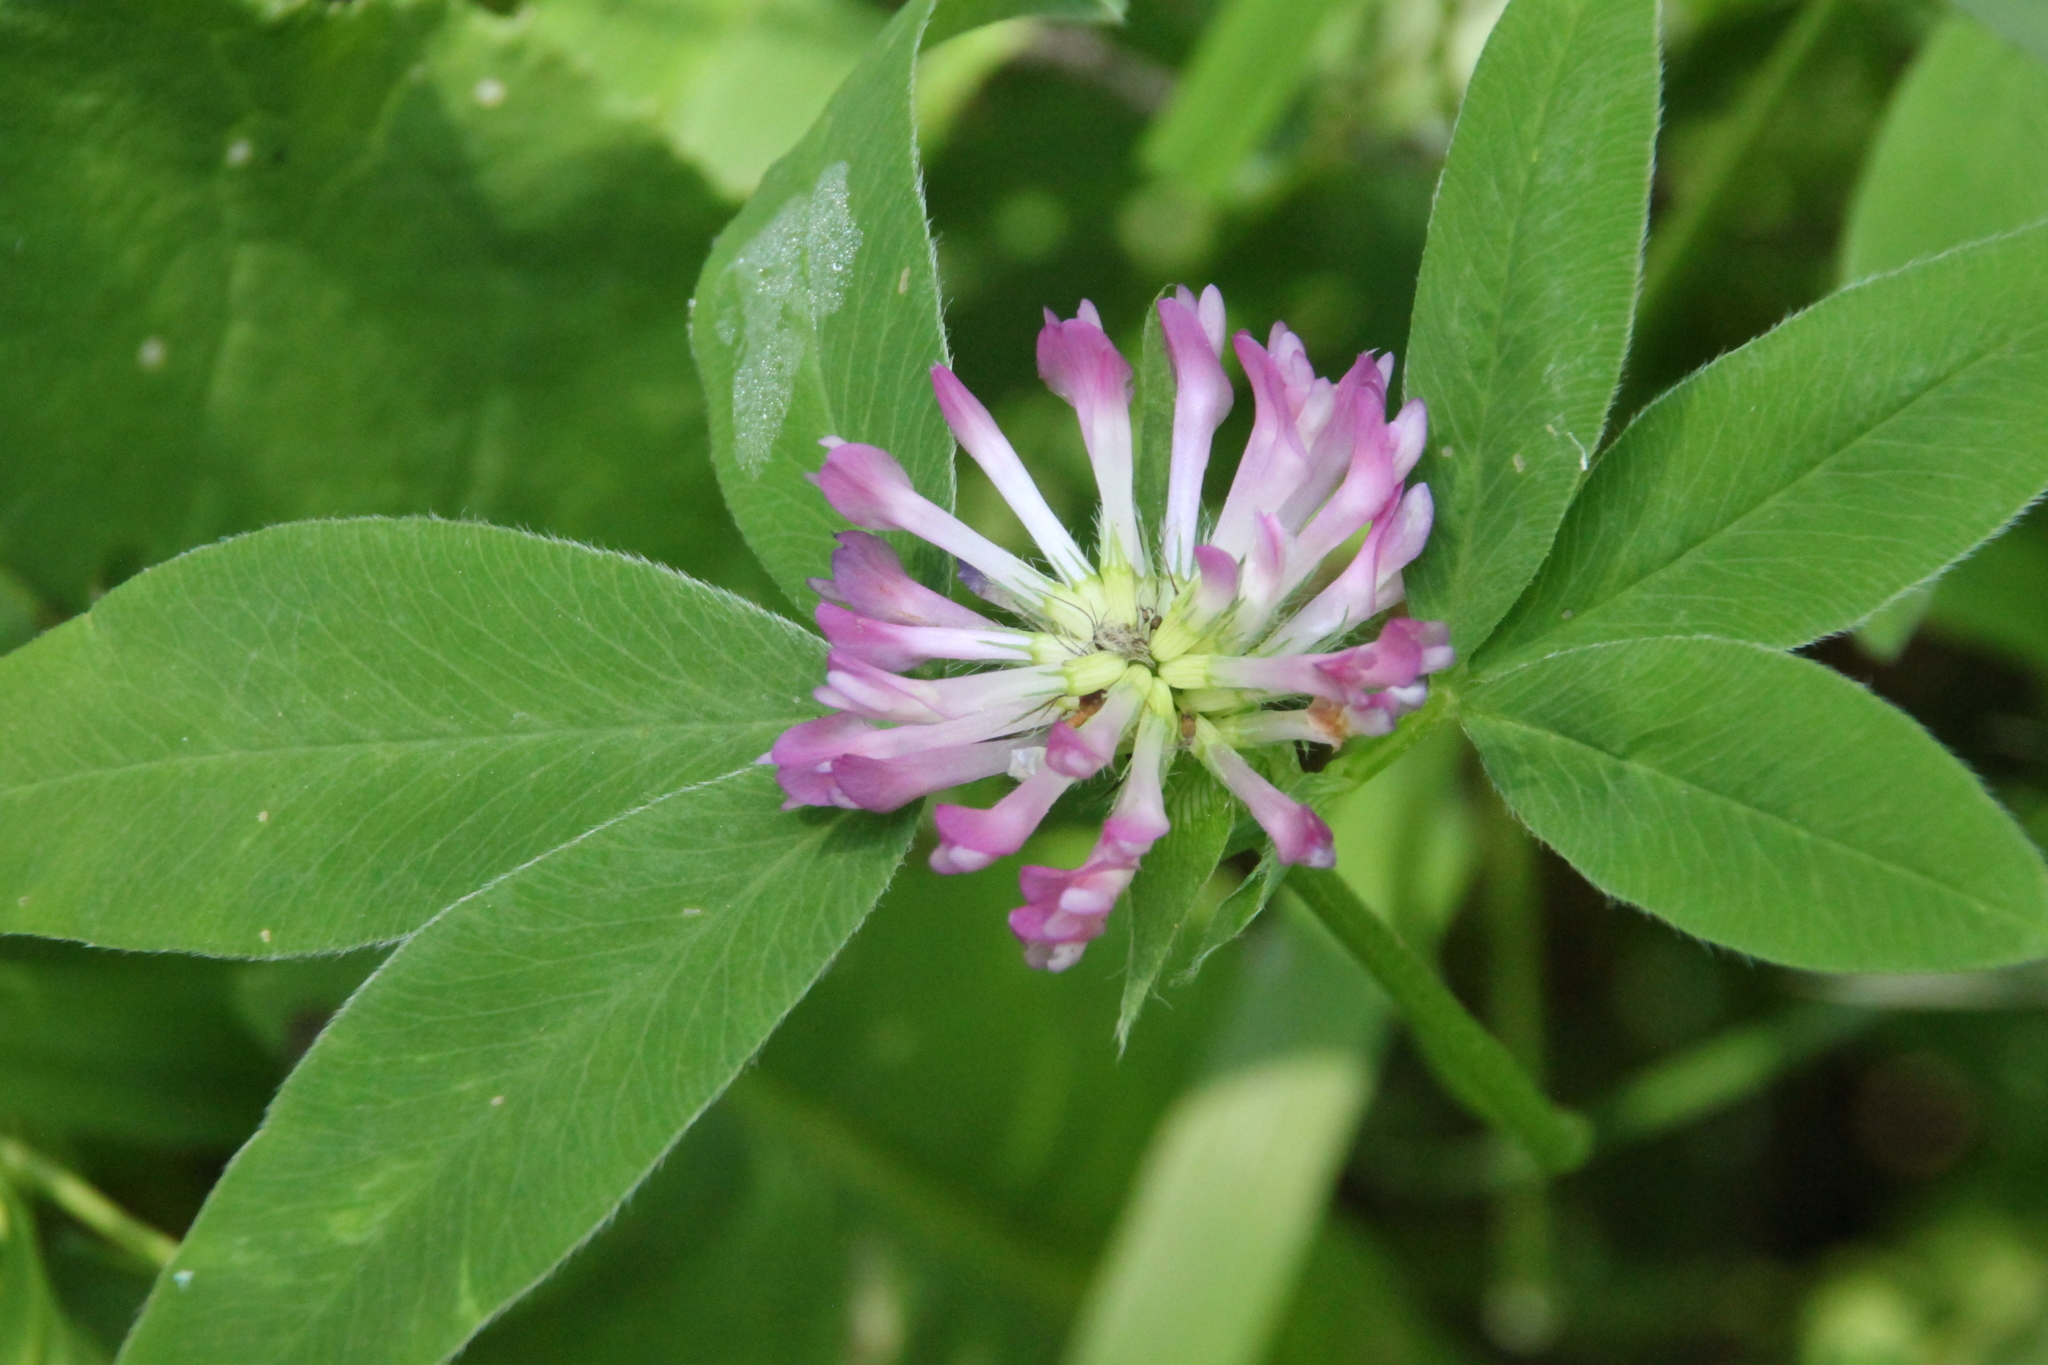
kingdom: Plantae
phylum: Tracheophyta
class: Magnoliopsida
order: Fabales
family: Fabaceae
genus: Trifolium
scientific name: Trifolium medium
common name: Zigzag clover
